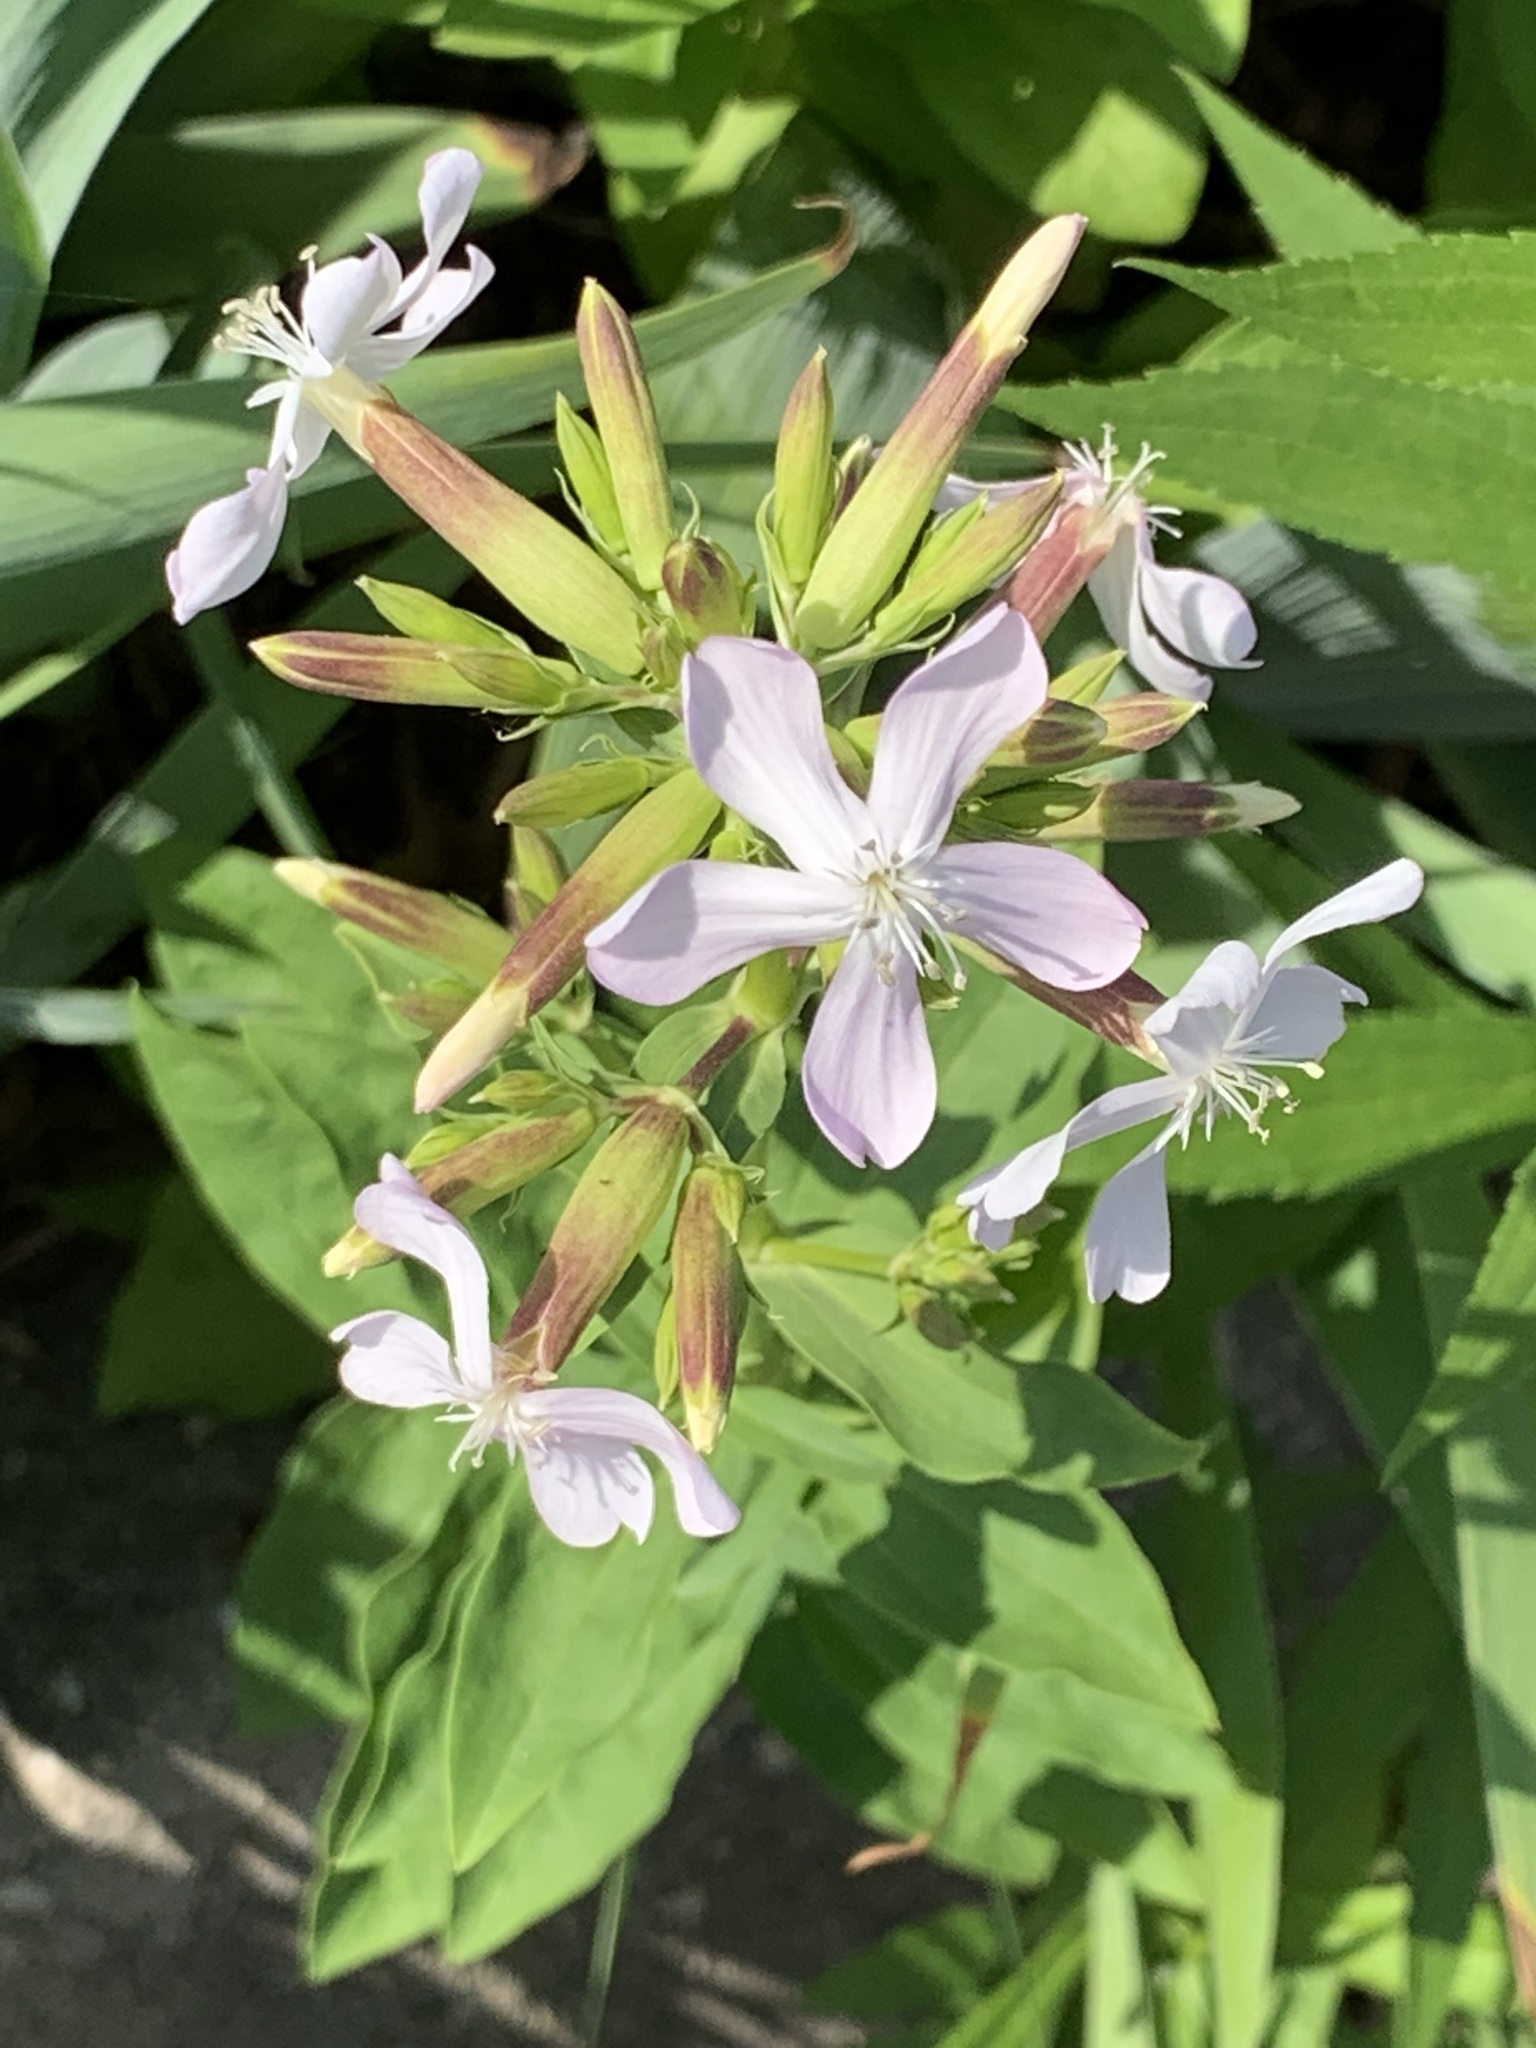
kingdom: Plantae
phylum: Tracheophyta
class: Magnoliopsida
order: Caryophyllales
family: Caryophyllaceae
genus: Saponaria
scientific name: Saponaria officinalis
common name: Soapwort
